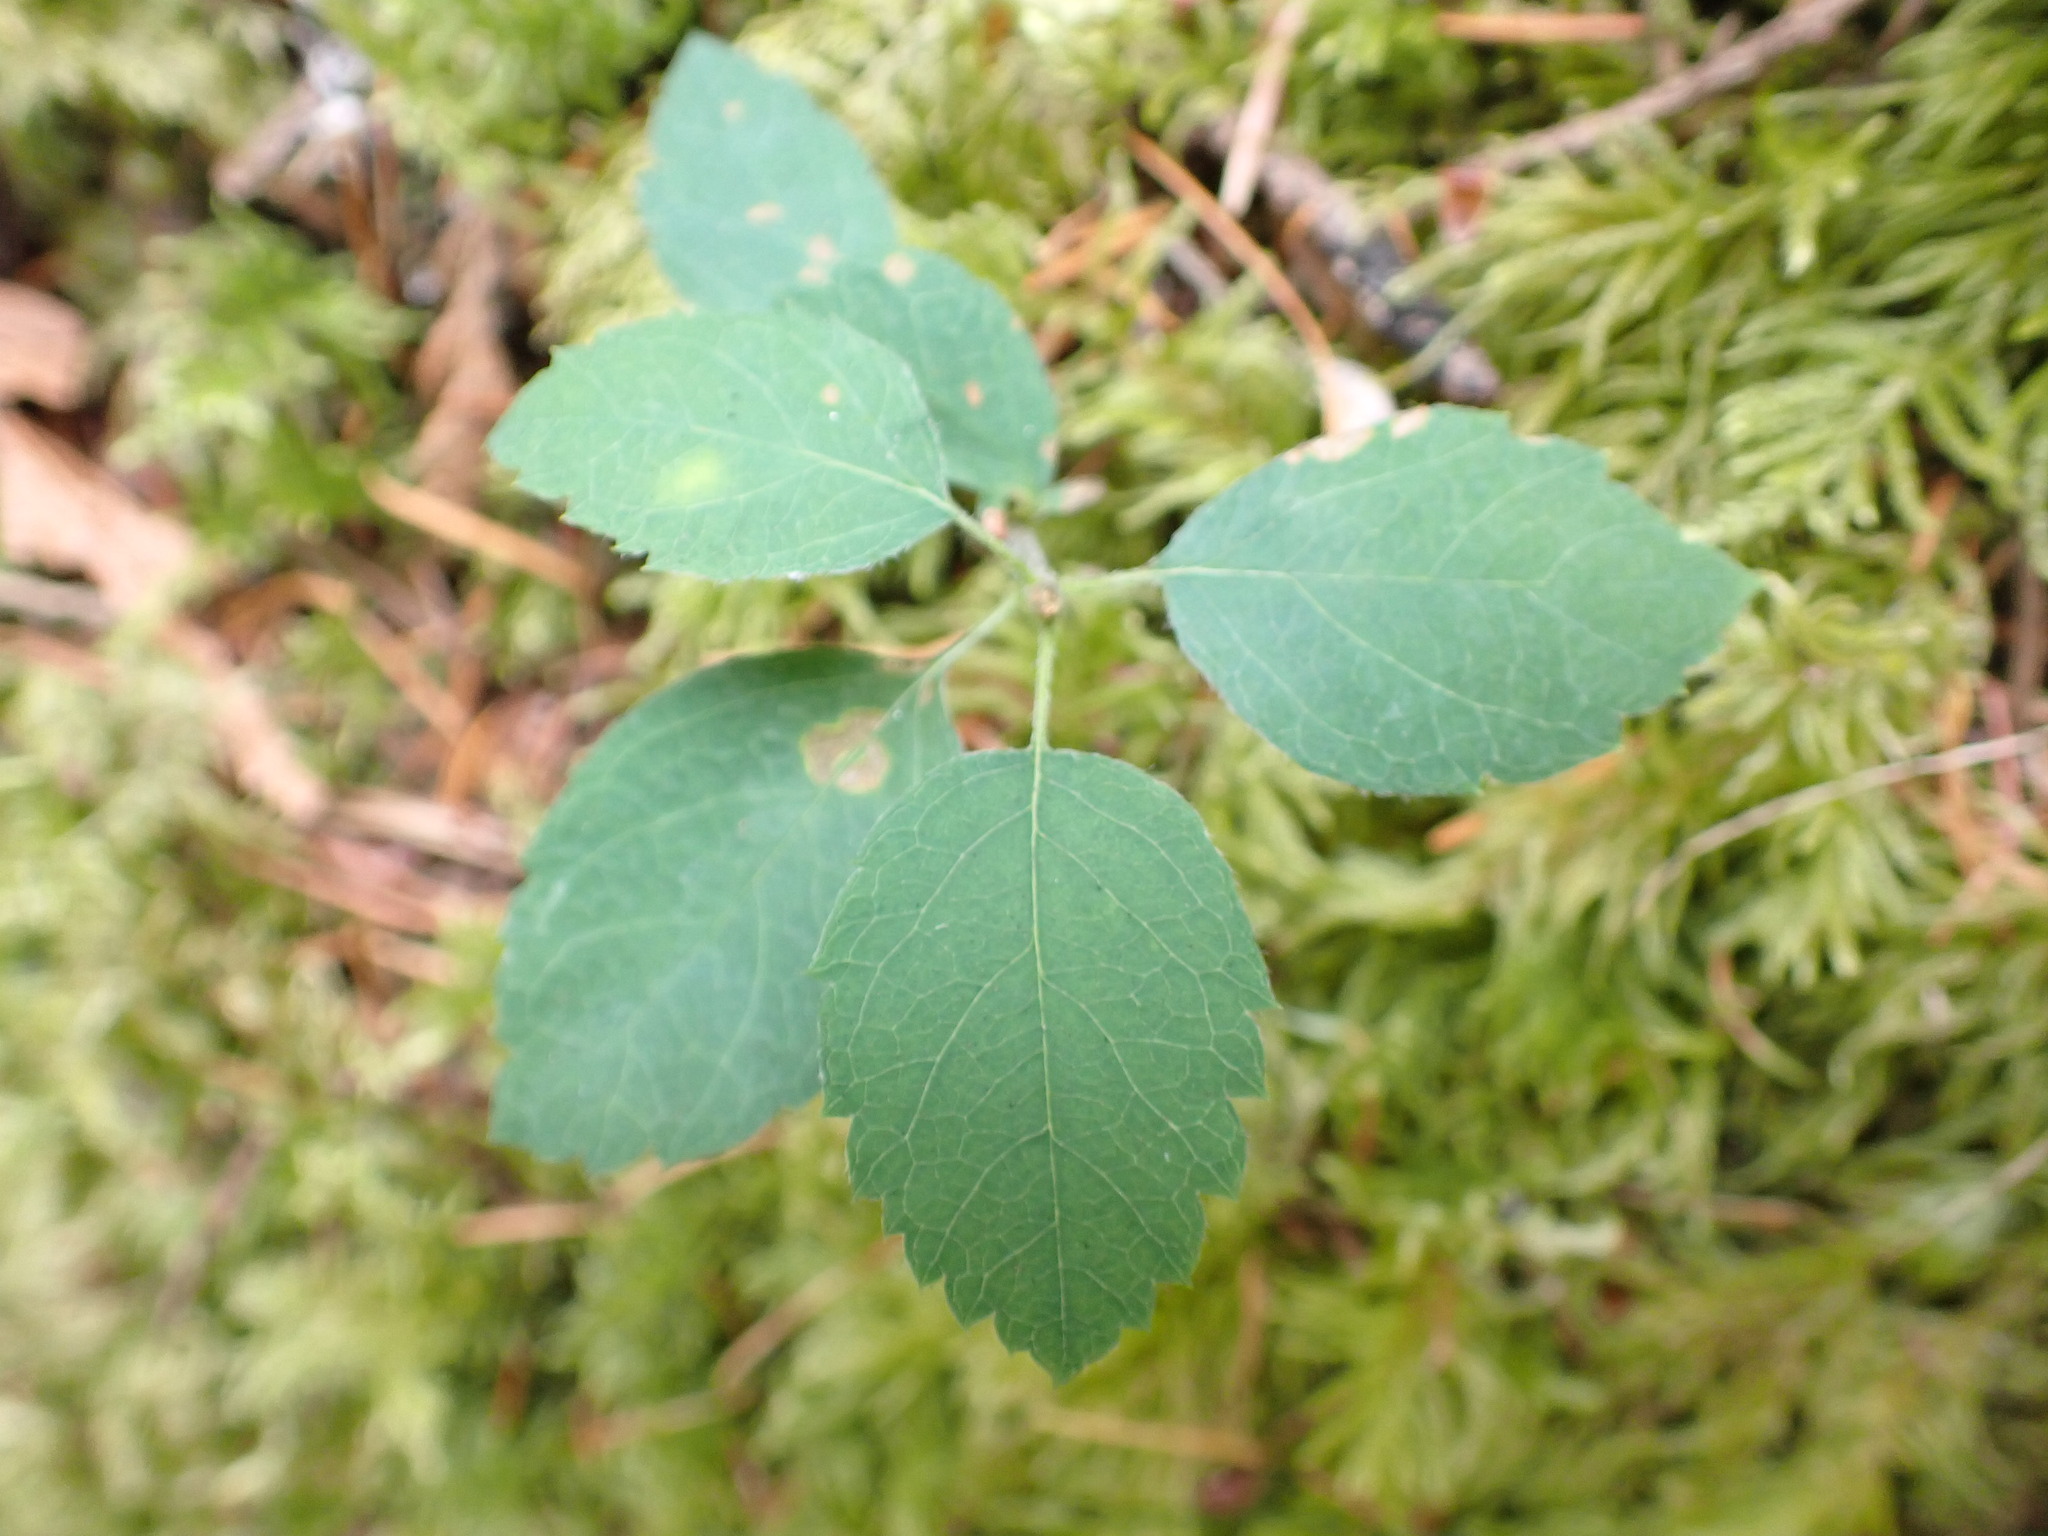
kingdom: Plantae
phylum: Tracheophyta
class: Magnoliopsida
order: Rosales
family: Rosaceae
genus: Amelanchier
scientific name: Amelanchier alnifolia
